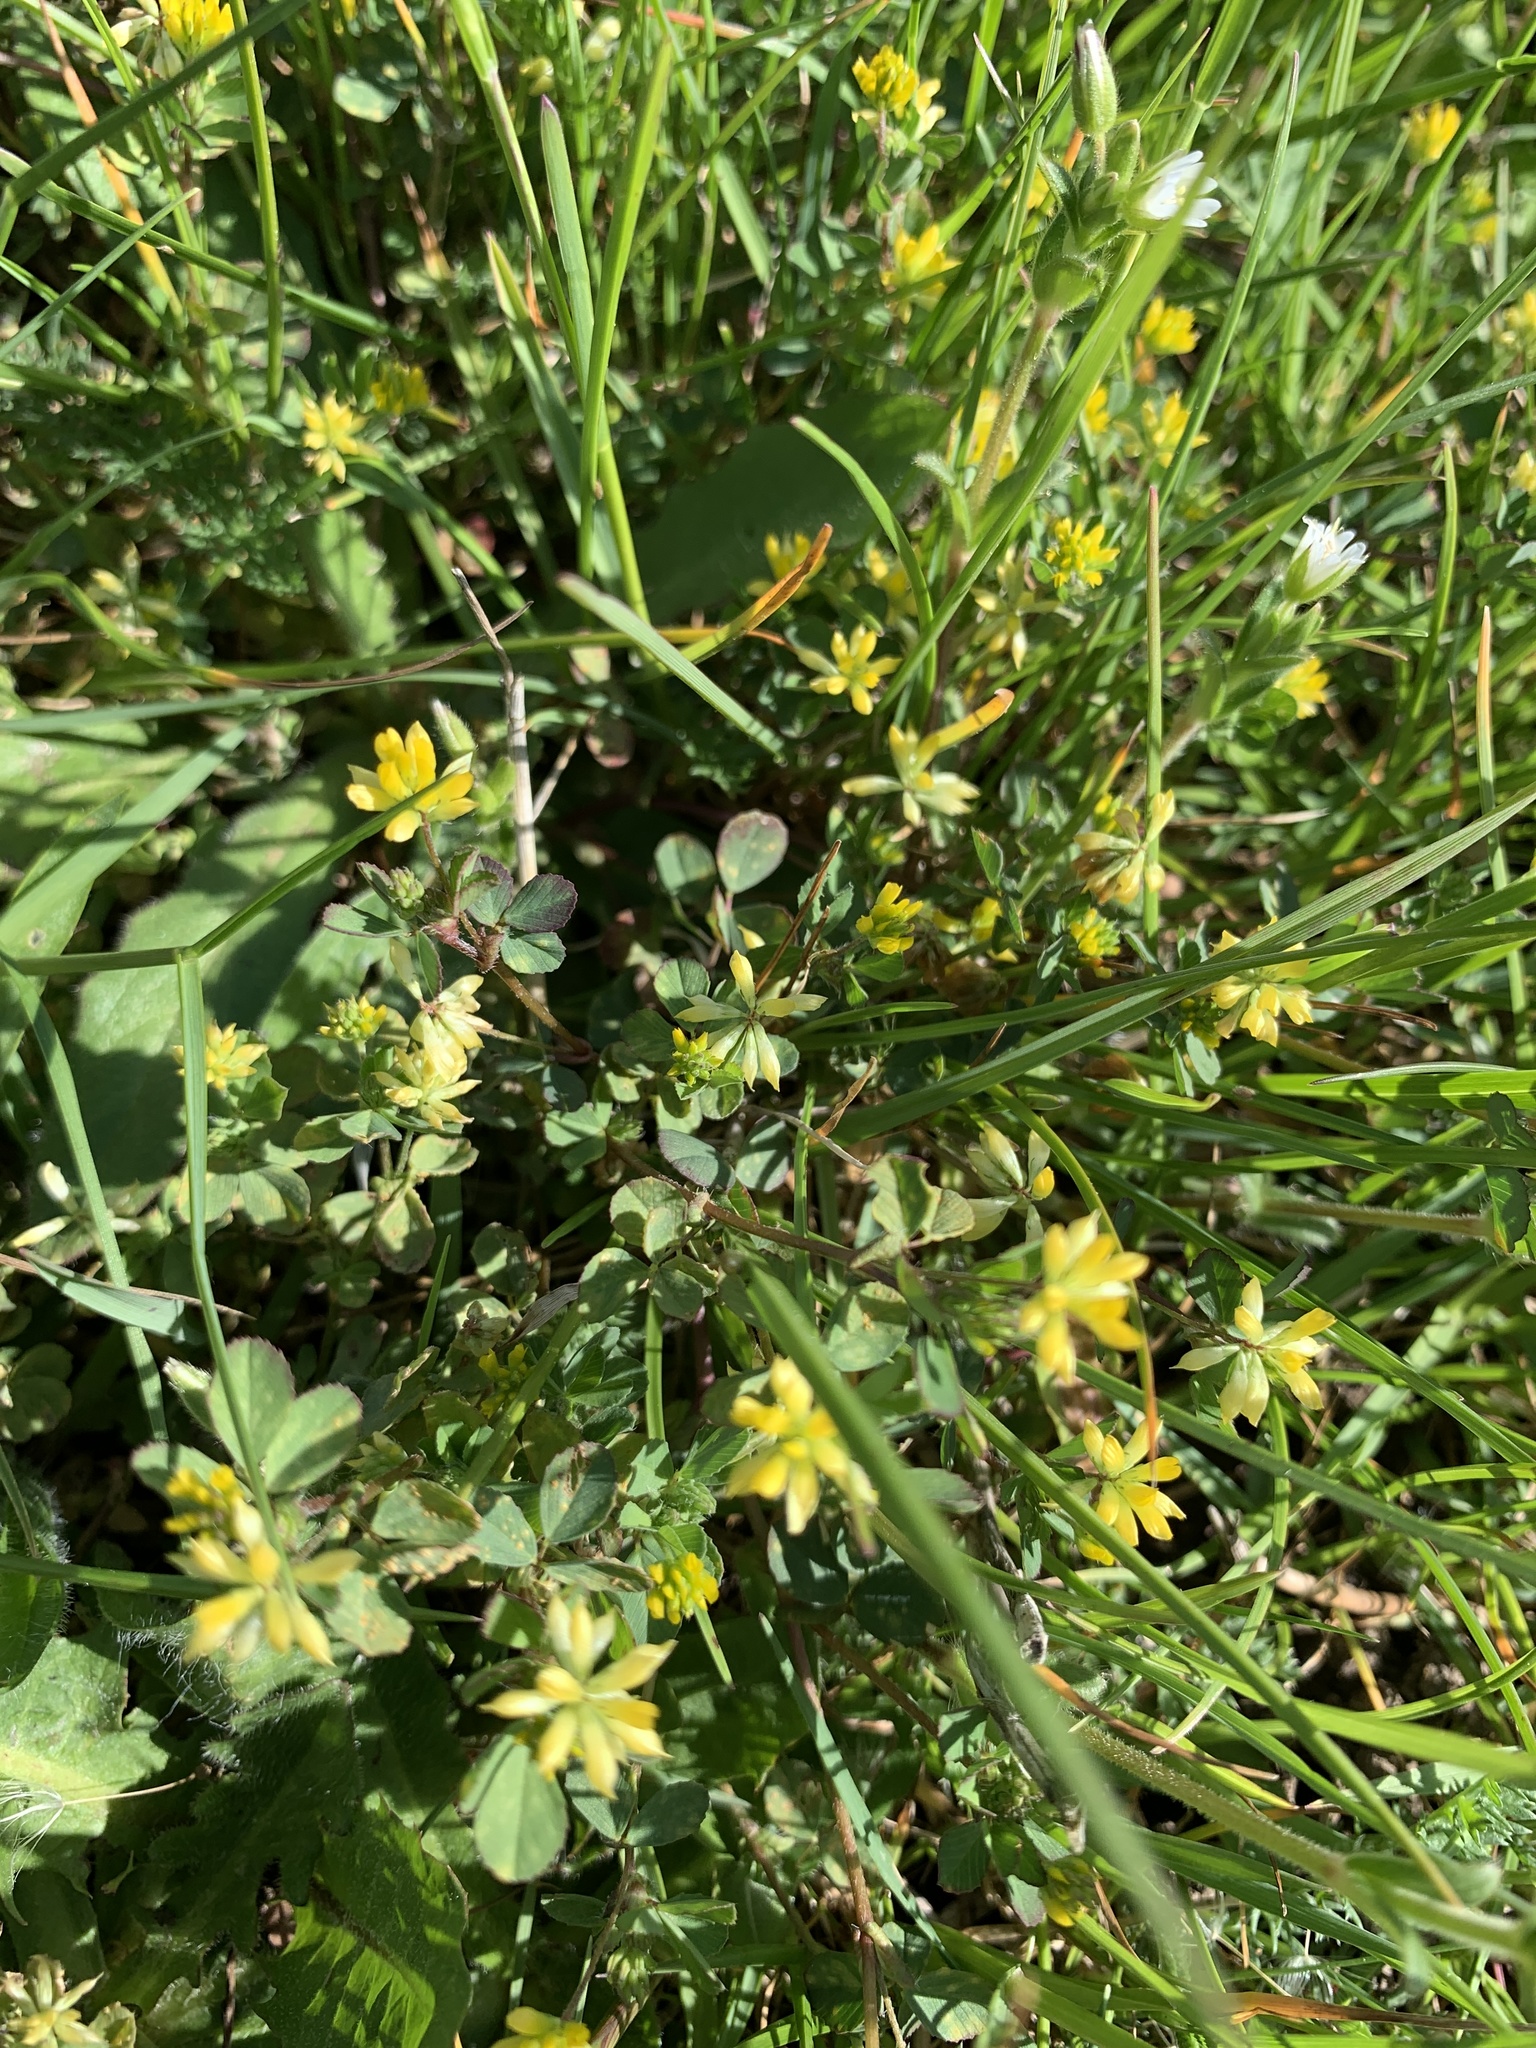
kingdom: Plantae
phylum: Tracheophyta
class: Magnoliopsida
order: Fabales
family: Fabaceae
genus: Trifolium
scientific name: Trifolium dubium
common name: Suckling clover
